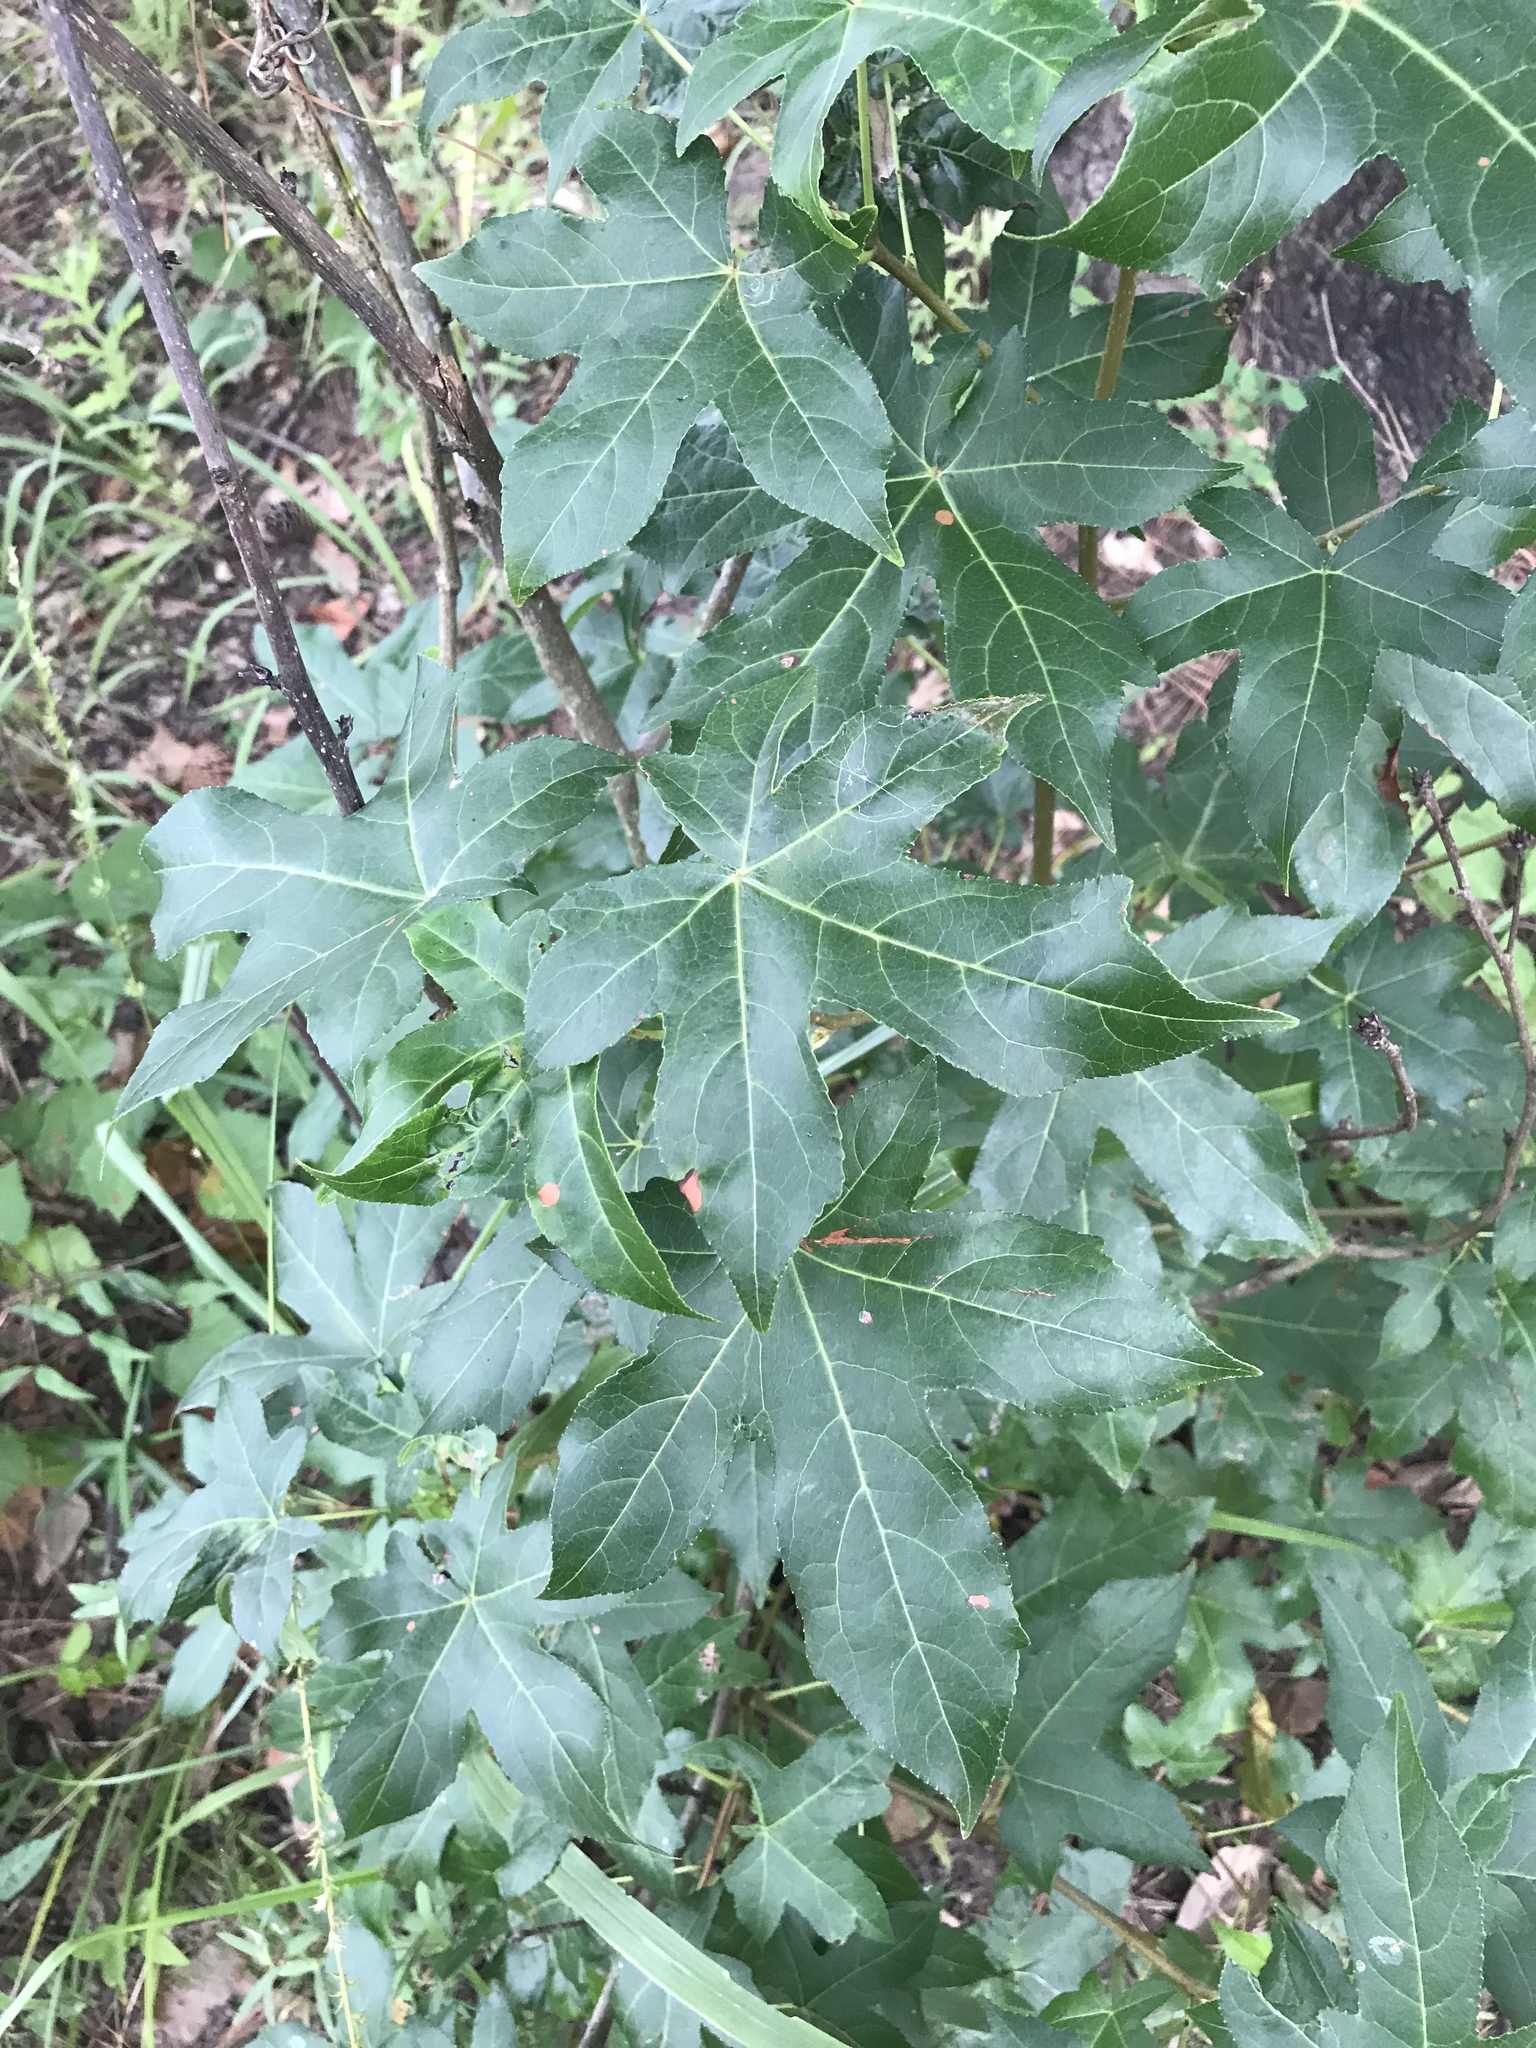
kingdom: Plantae
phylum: Tracheophyta
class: Magnoliopsida
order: Saxifragales
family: Altingiaceae
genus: Liquidambar
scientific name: Liquidambar styraciflua
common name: Sweet gum
